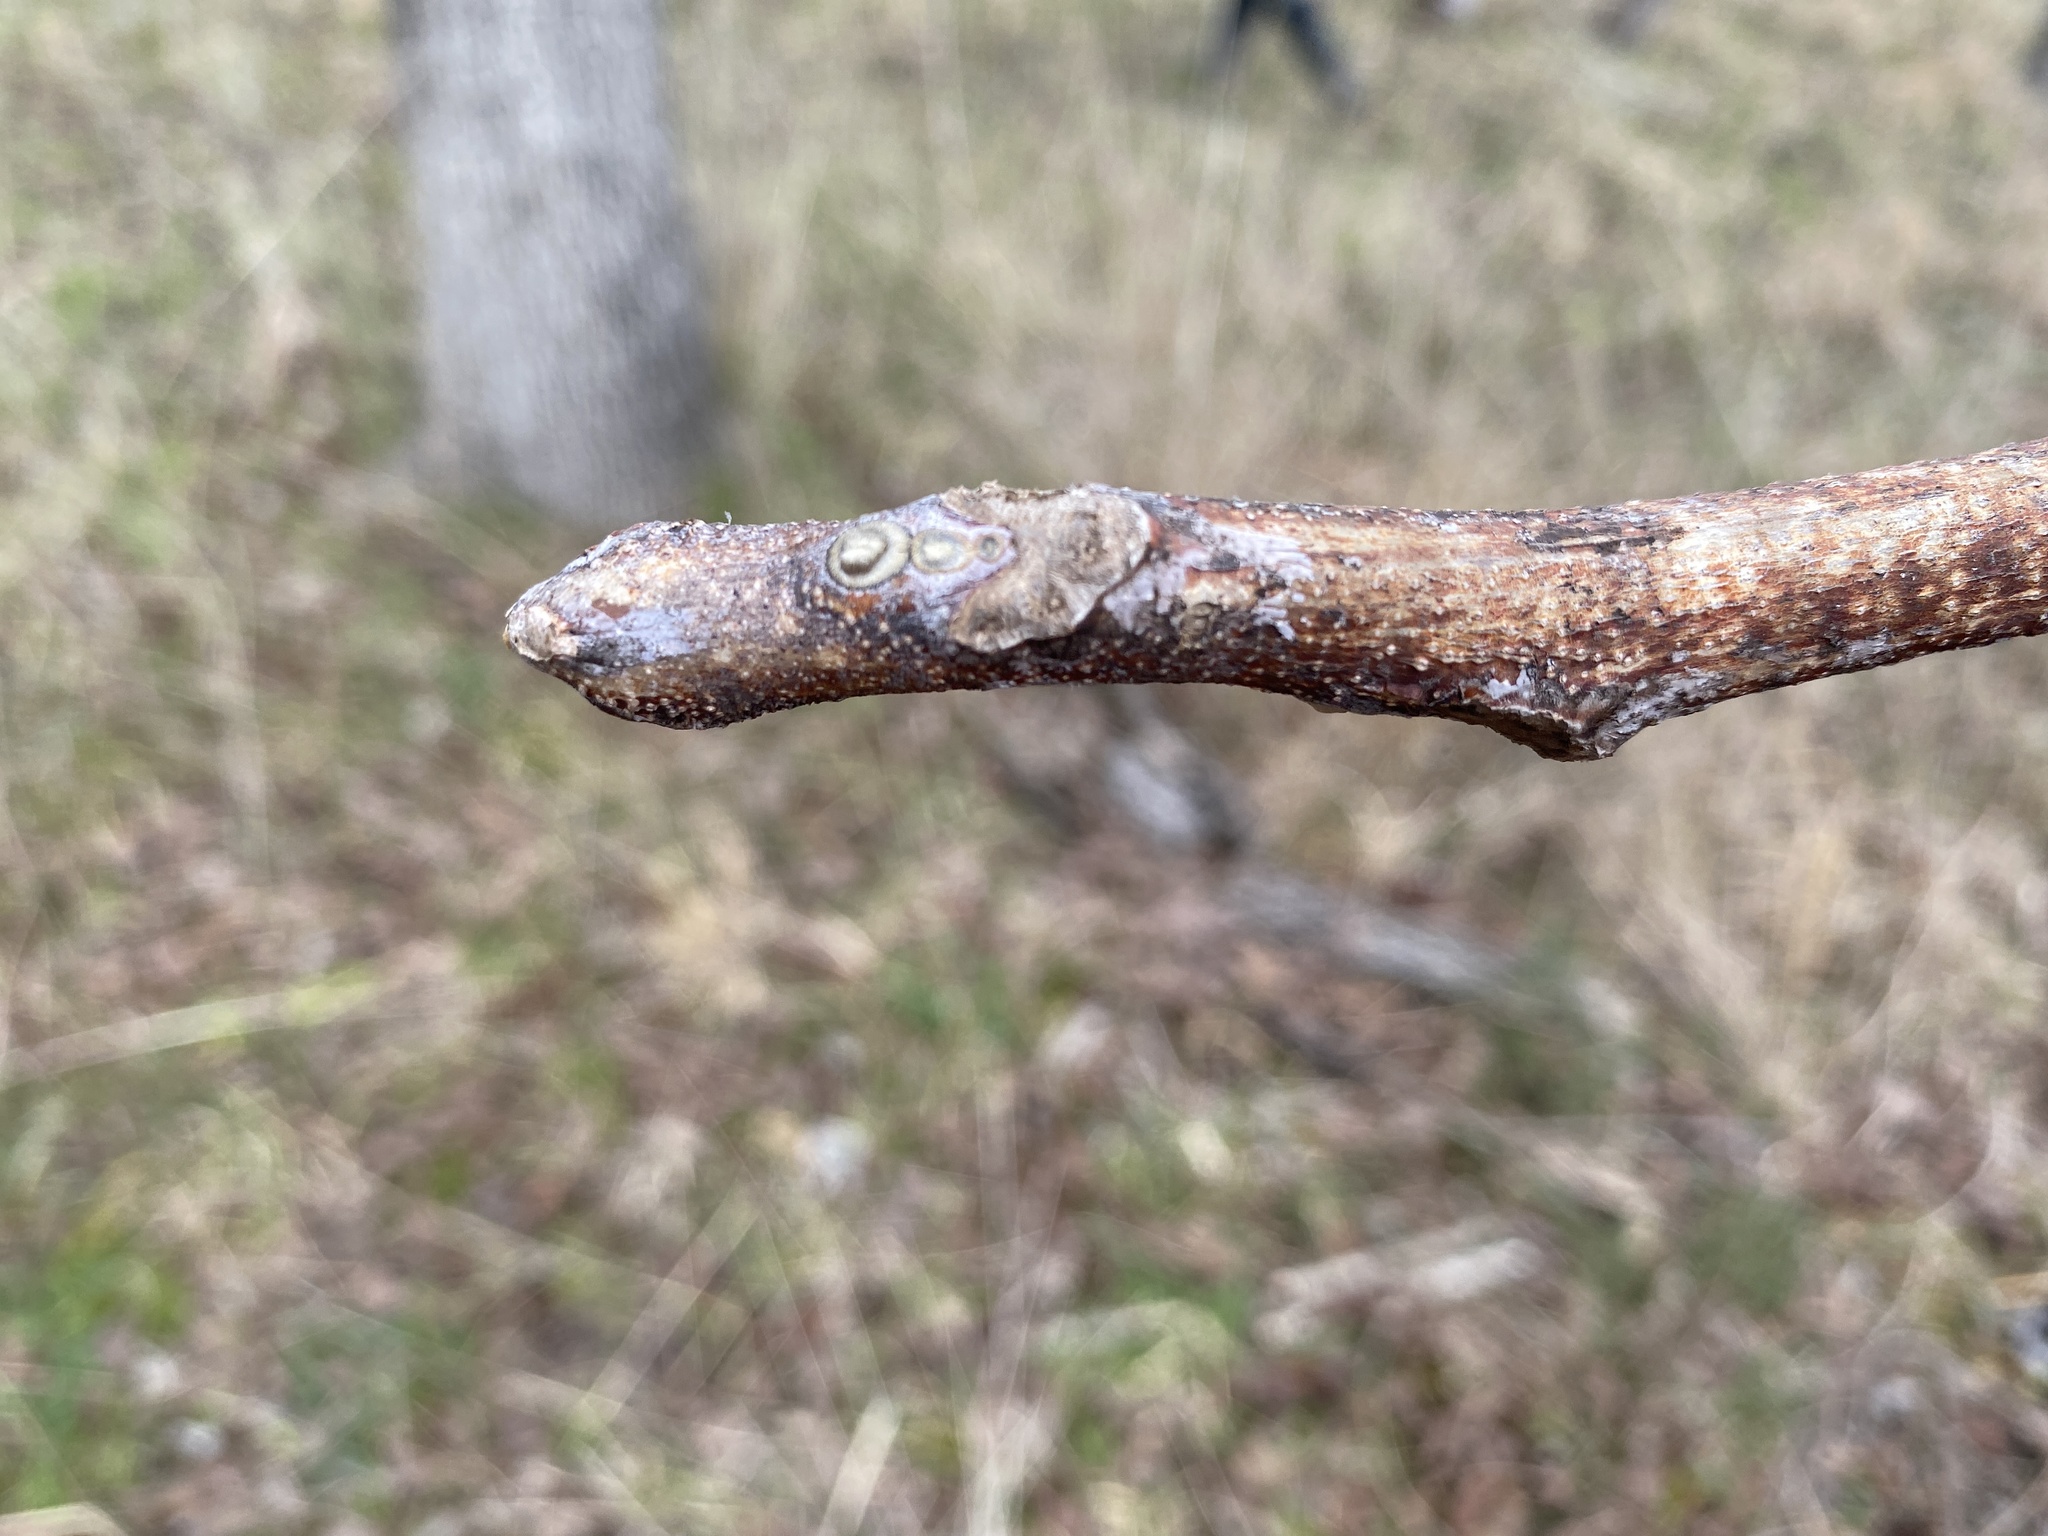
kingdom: Plantae
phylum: Tracheophyta
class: Magnoliopsida
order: Fabales
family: Fabaceae
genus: Gymnocladus
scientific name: Gymnocladus dioicus
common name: Kentucky coffee-tree
